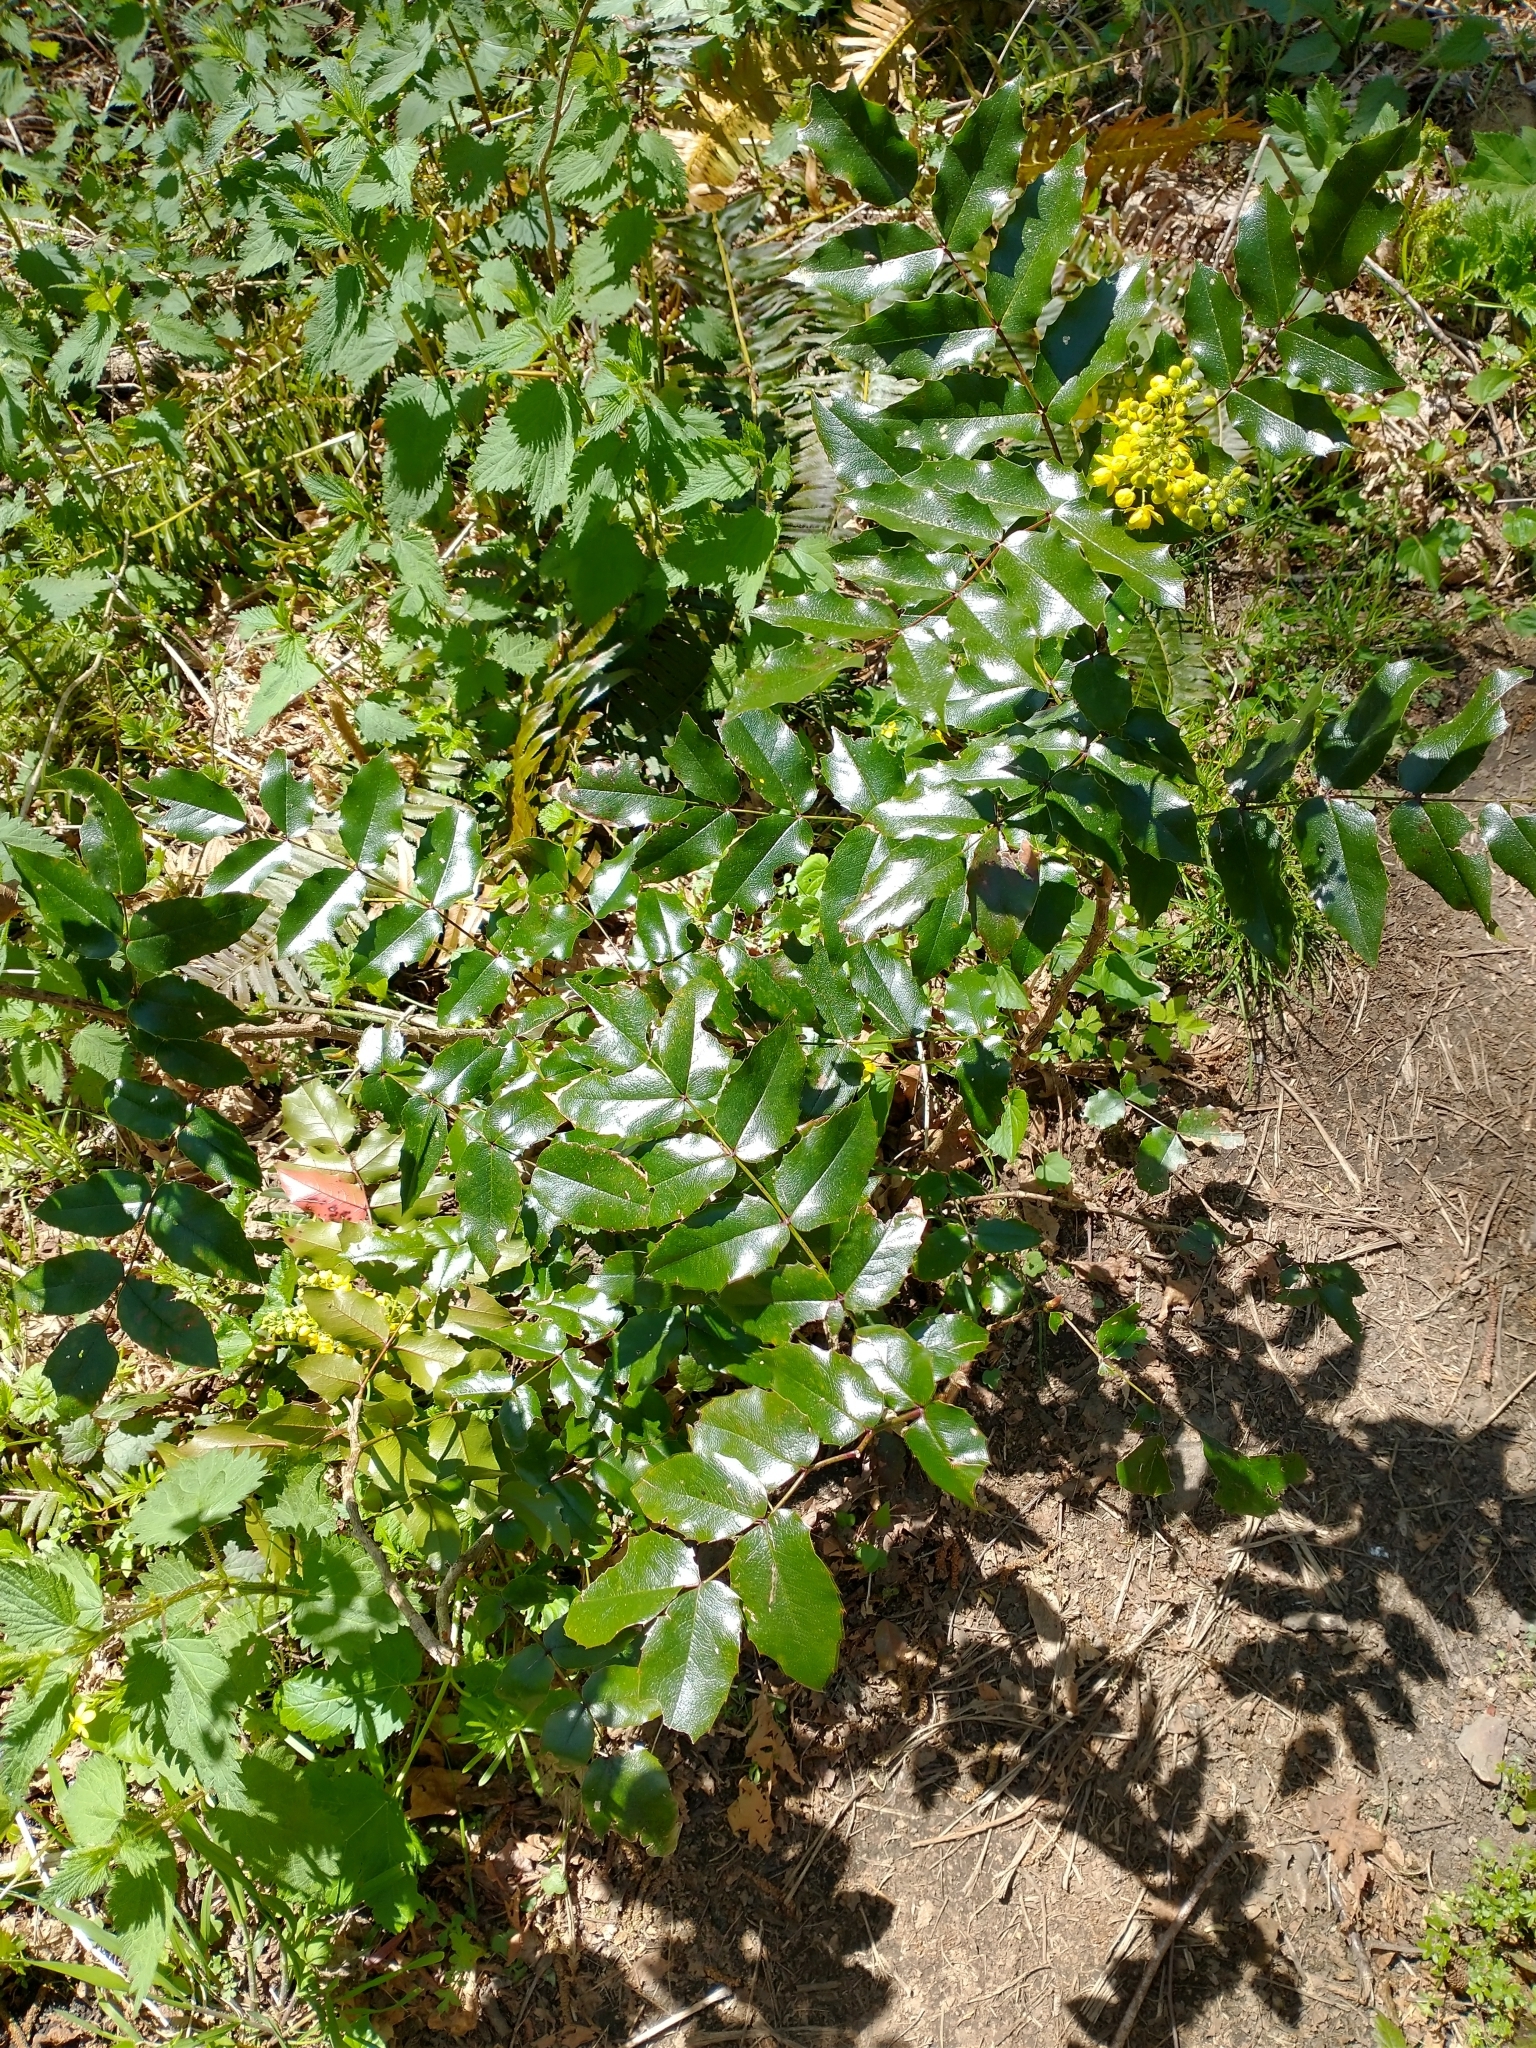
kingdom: Plantae
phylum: Tracheophyta
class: Magnoliopsida
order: Ranunculales
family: Berberidaceae
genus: Mahonia
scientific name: Mahonia aquifolium
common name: Oregon-grape
